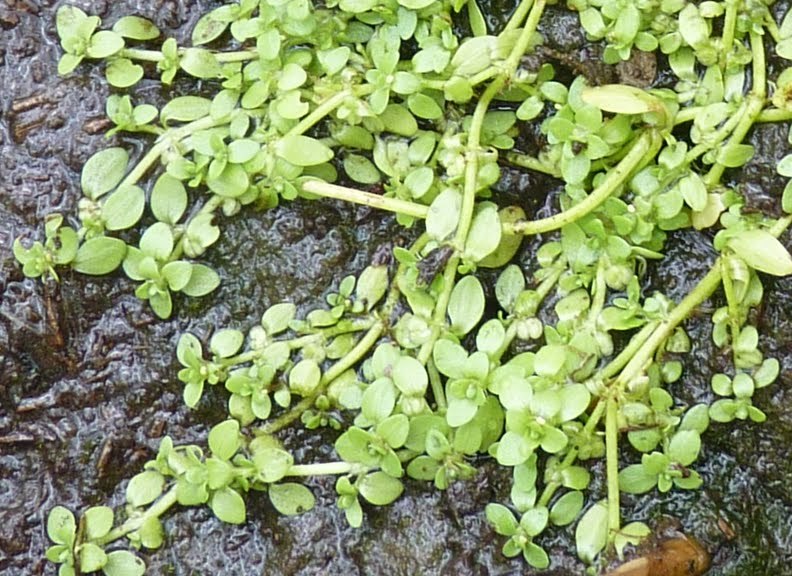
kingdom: Plantae
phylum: Tracheophyta
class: Magnoliopsida
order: Lamiales
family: Plantaginaceae
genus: Callitriche
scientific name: Callitriche
